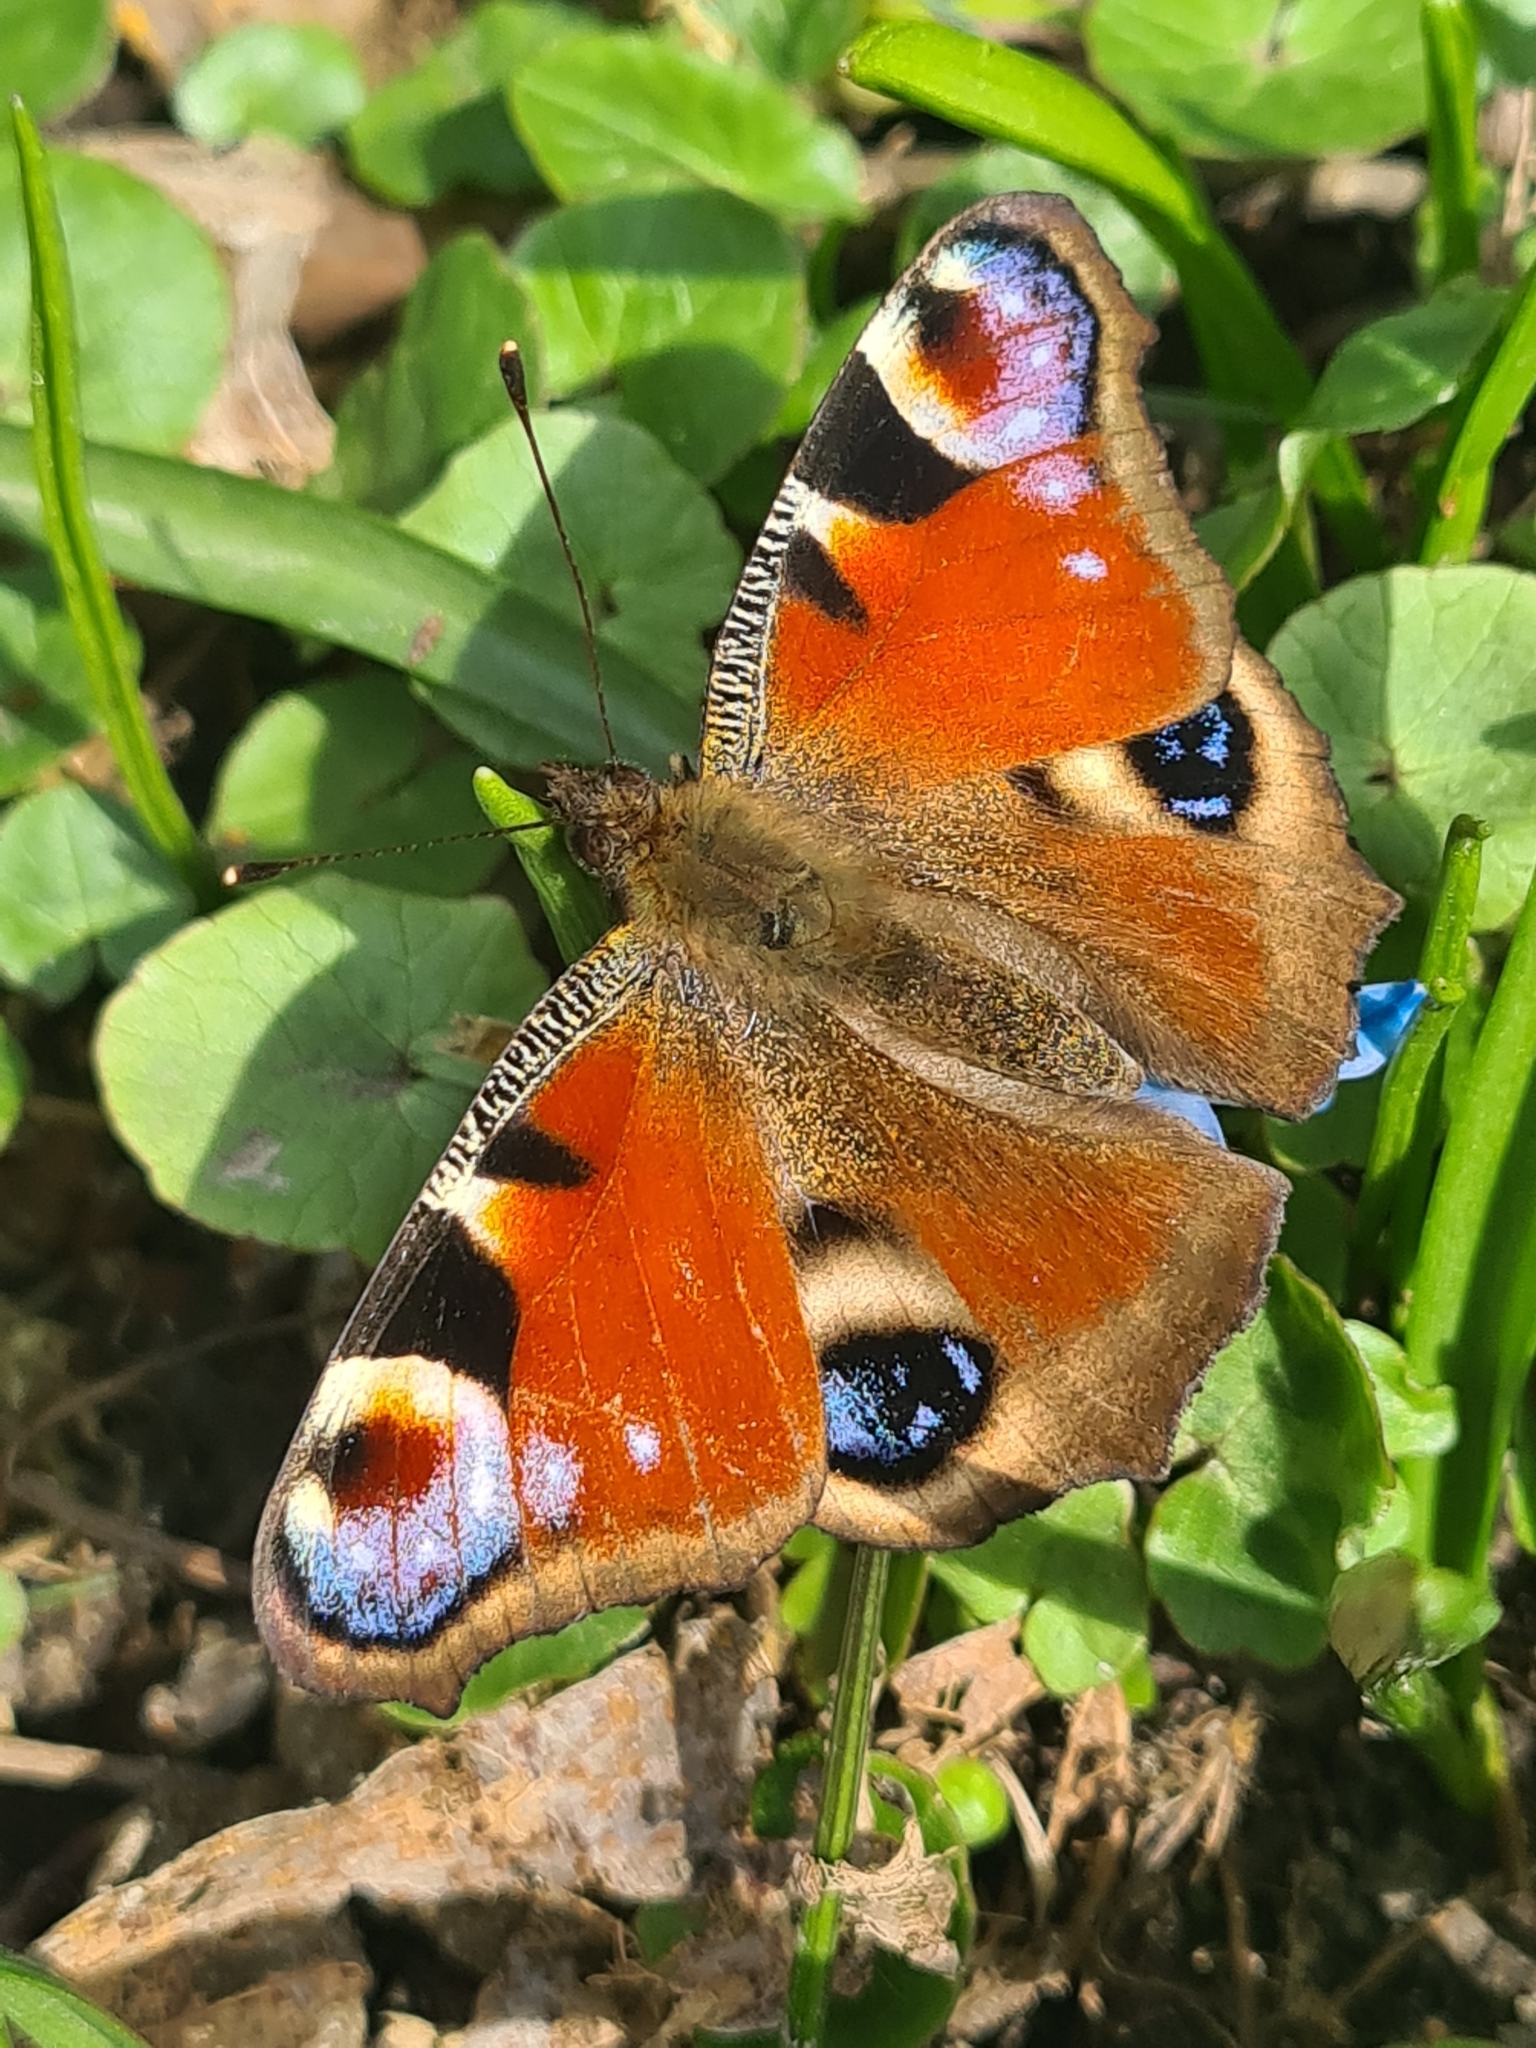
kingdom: Animalia
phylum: Arthropoda
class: Insecta
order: Lepidoptera
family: Nymphalidae
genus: Aglais
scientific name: Aglais io
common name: Peacock
